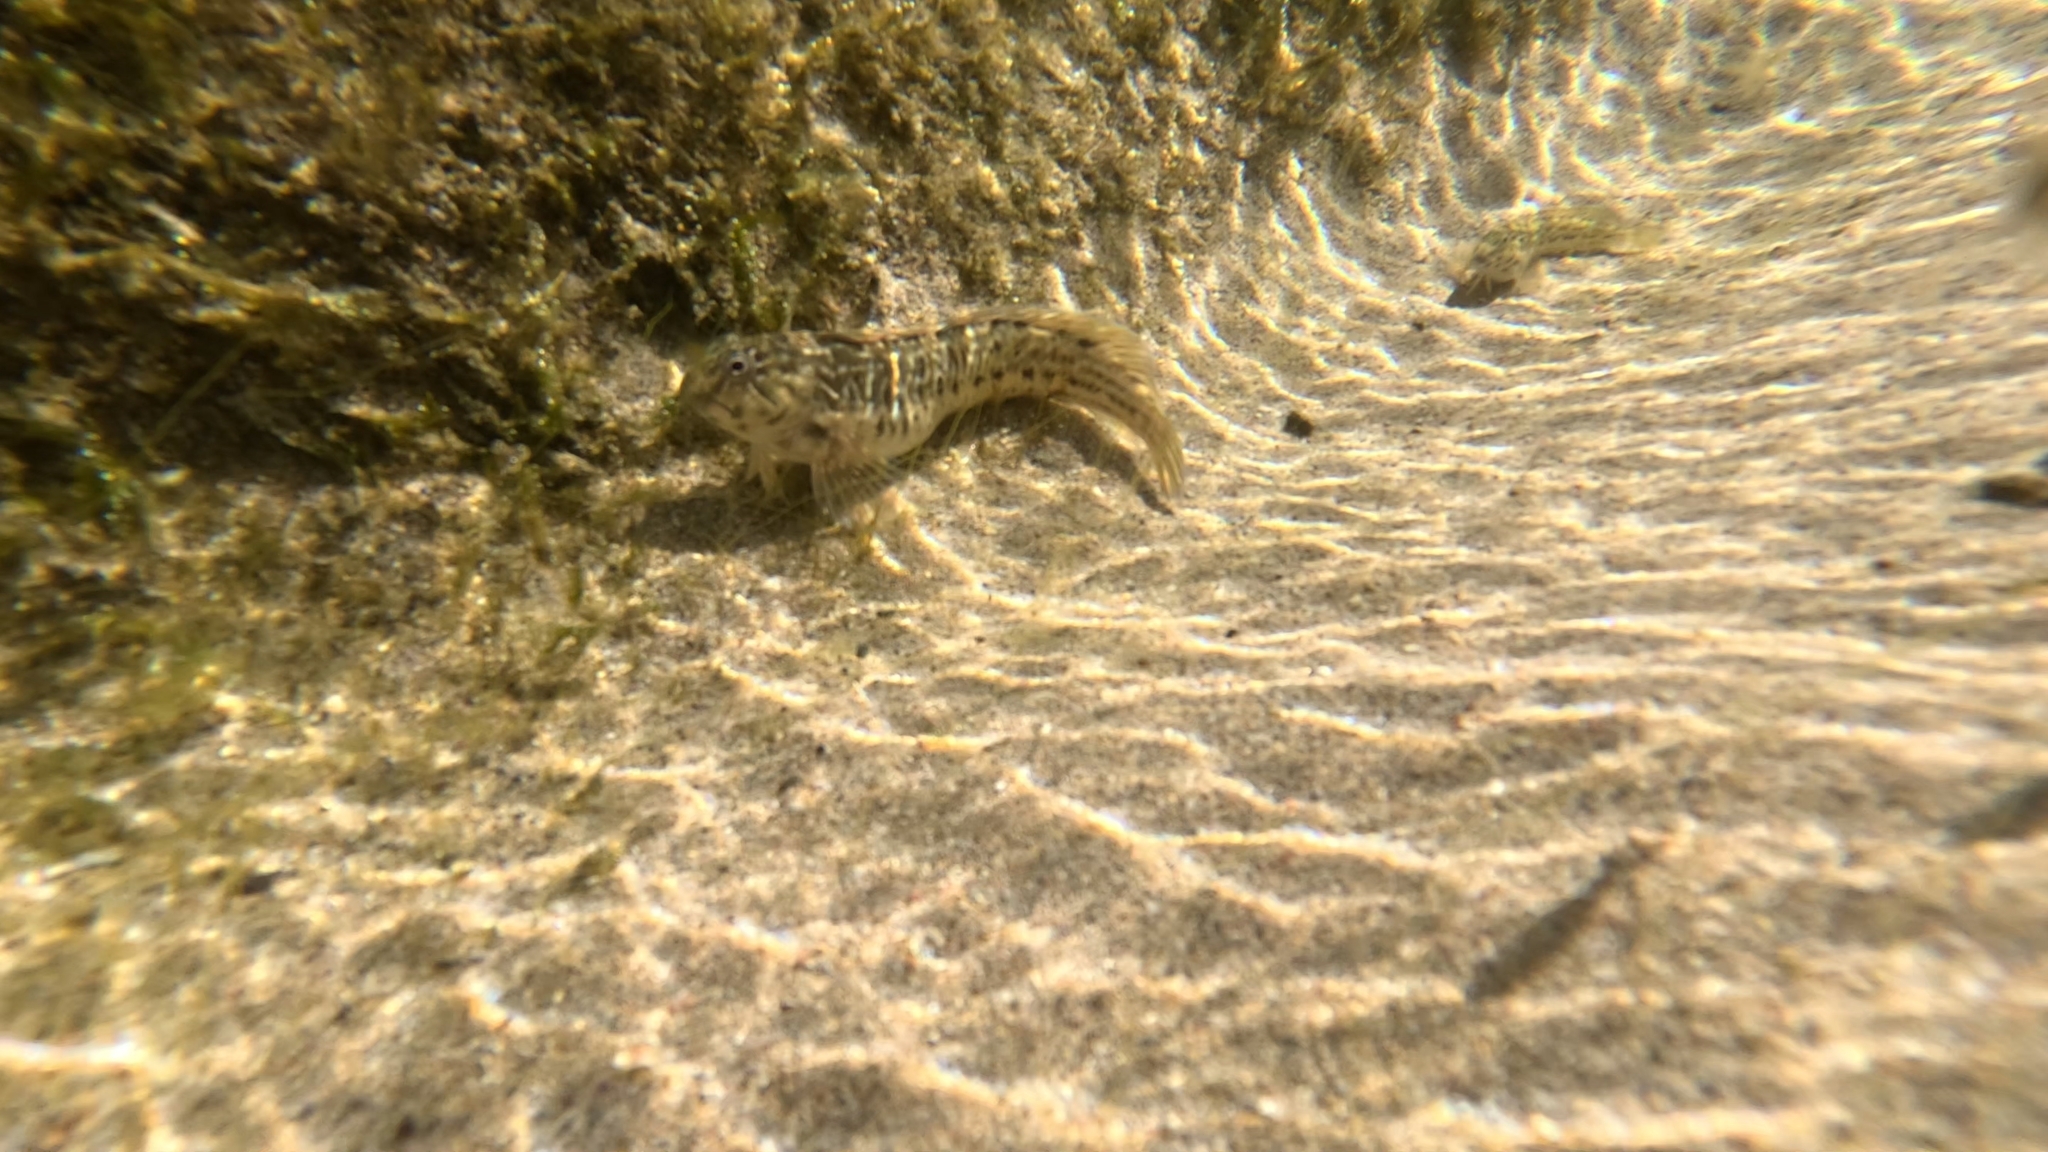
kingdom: Animalia
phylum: Chordata
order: Perciformes
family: Blenniidae
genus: Parablennius
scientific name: Parablennius parvicornis
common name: Rock-pool blenny
